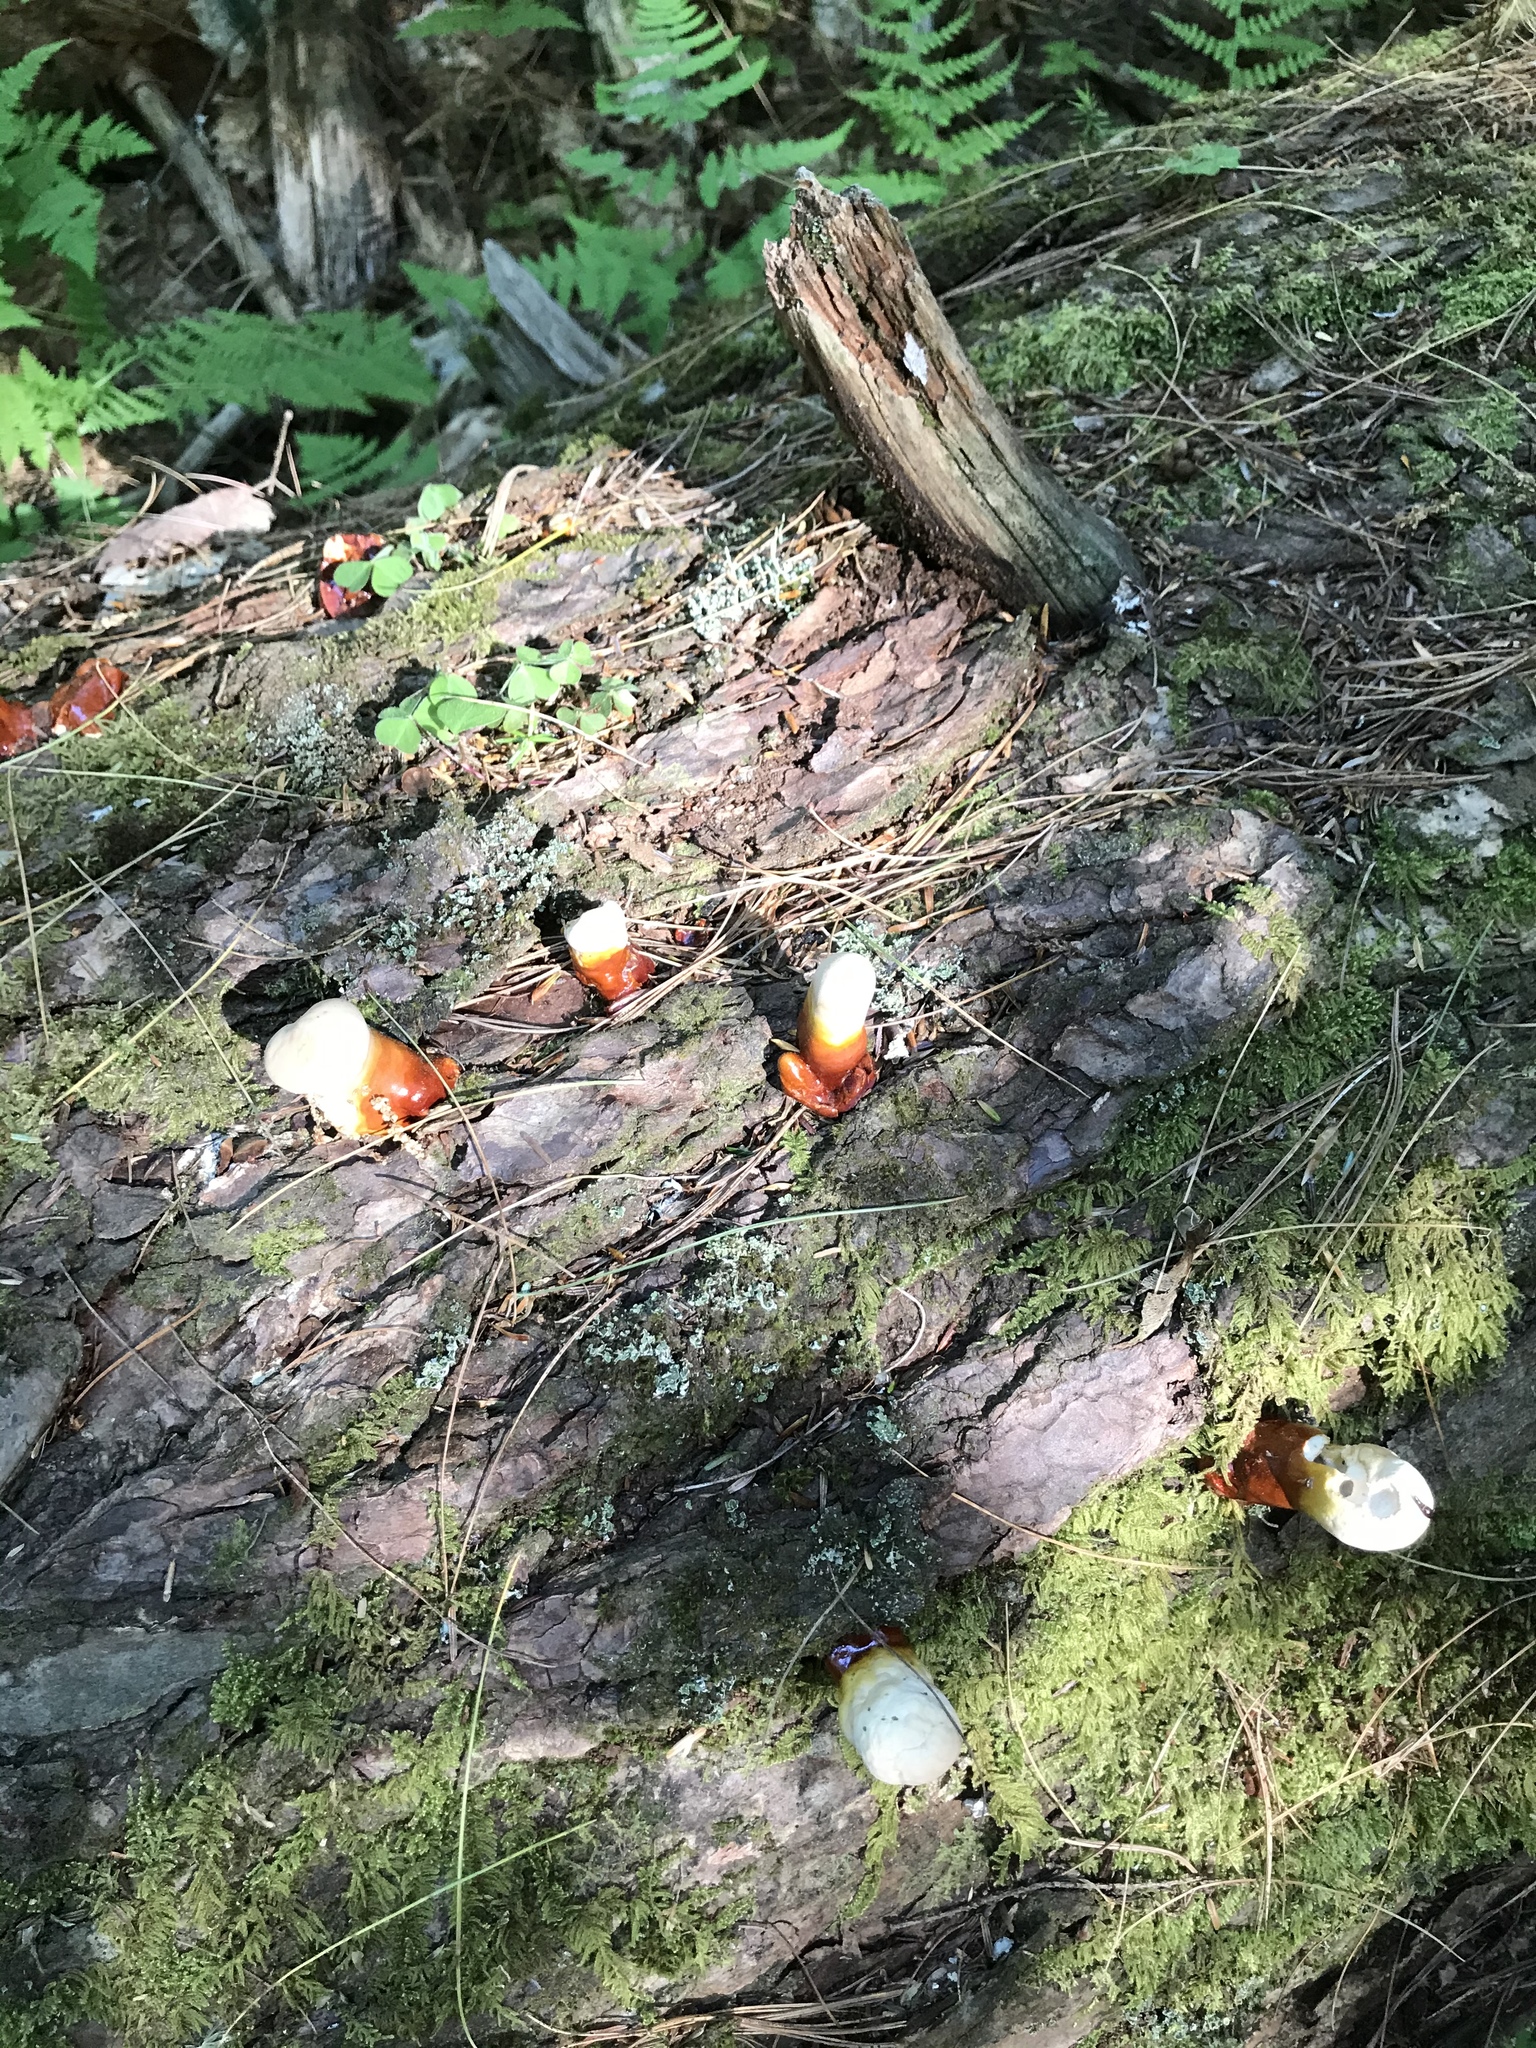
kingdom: Fungi
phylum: Basidiomycota
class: Agaricomycetes
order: Polyporales
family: Polyporaceae
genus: Ganoderma
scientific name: Ganoderma tsugae
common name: Hemlock varnish shelf
